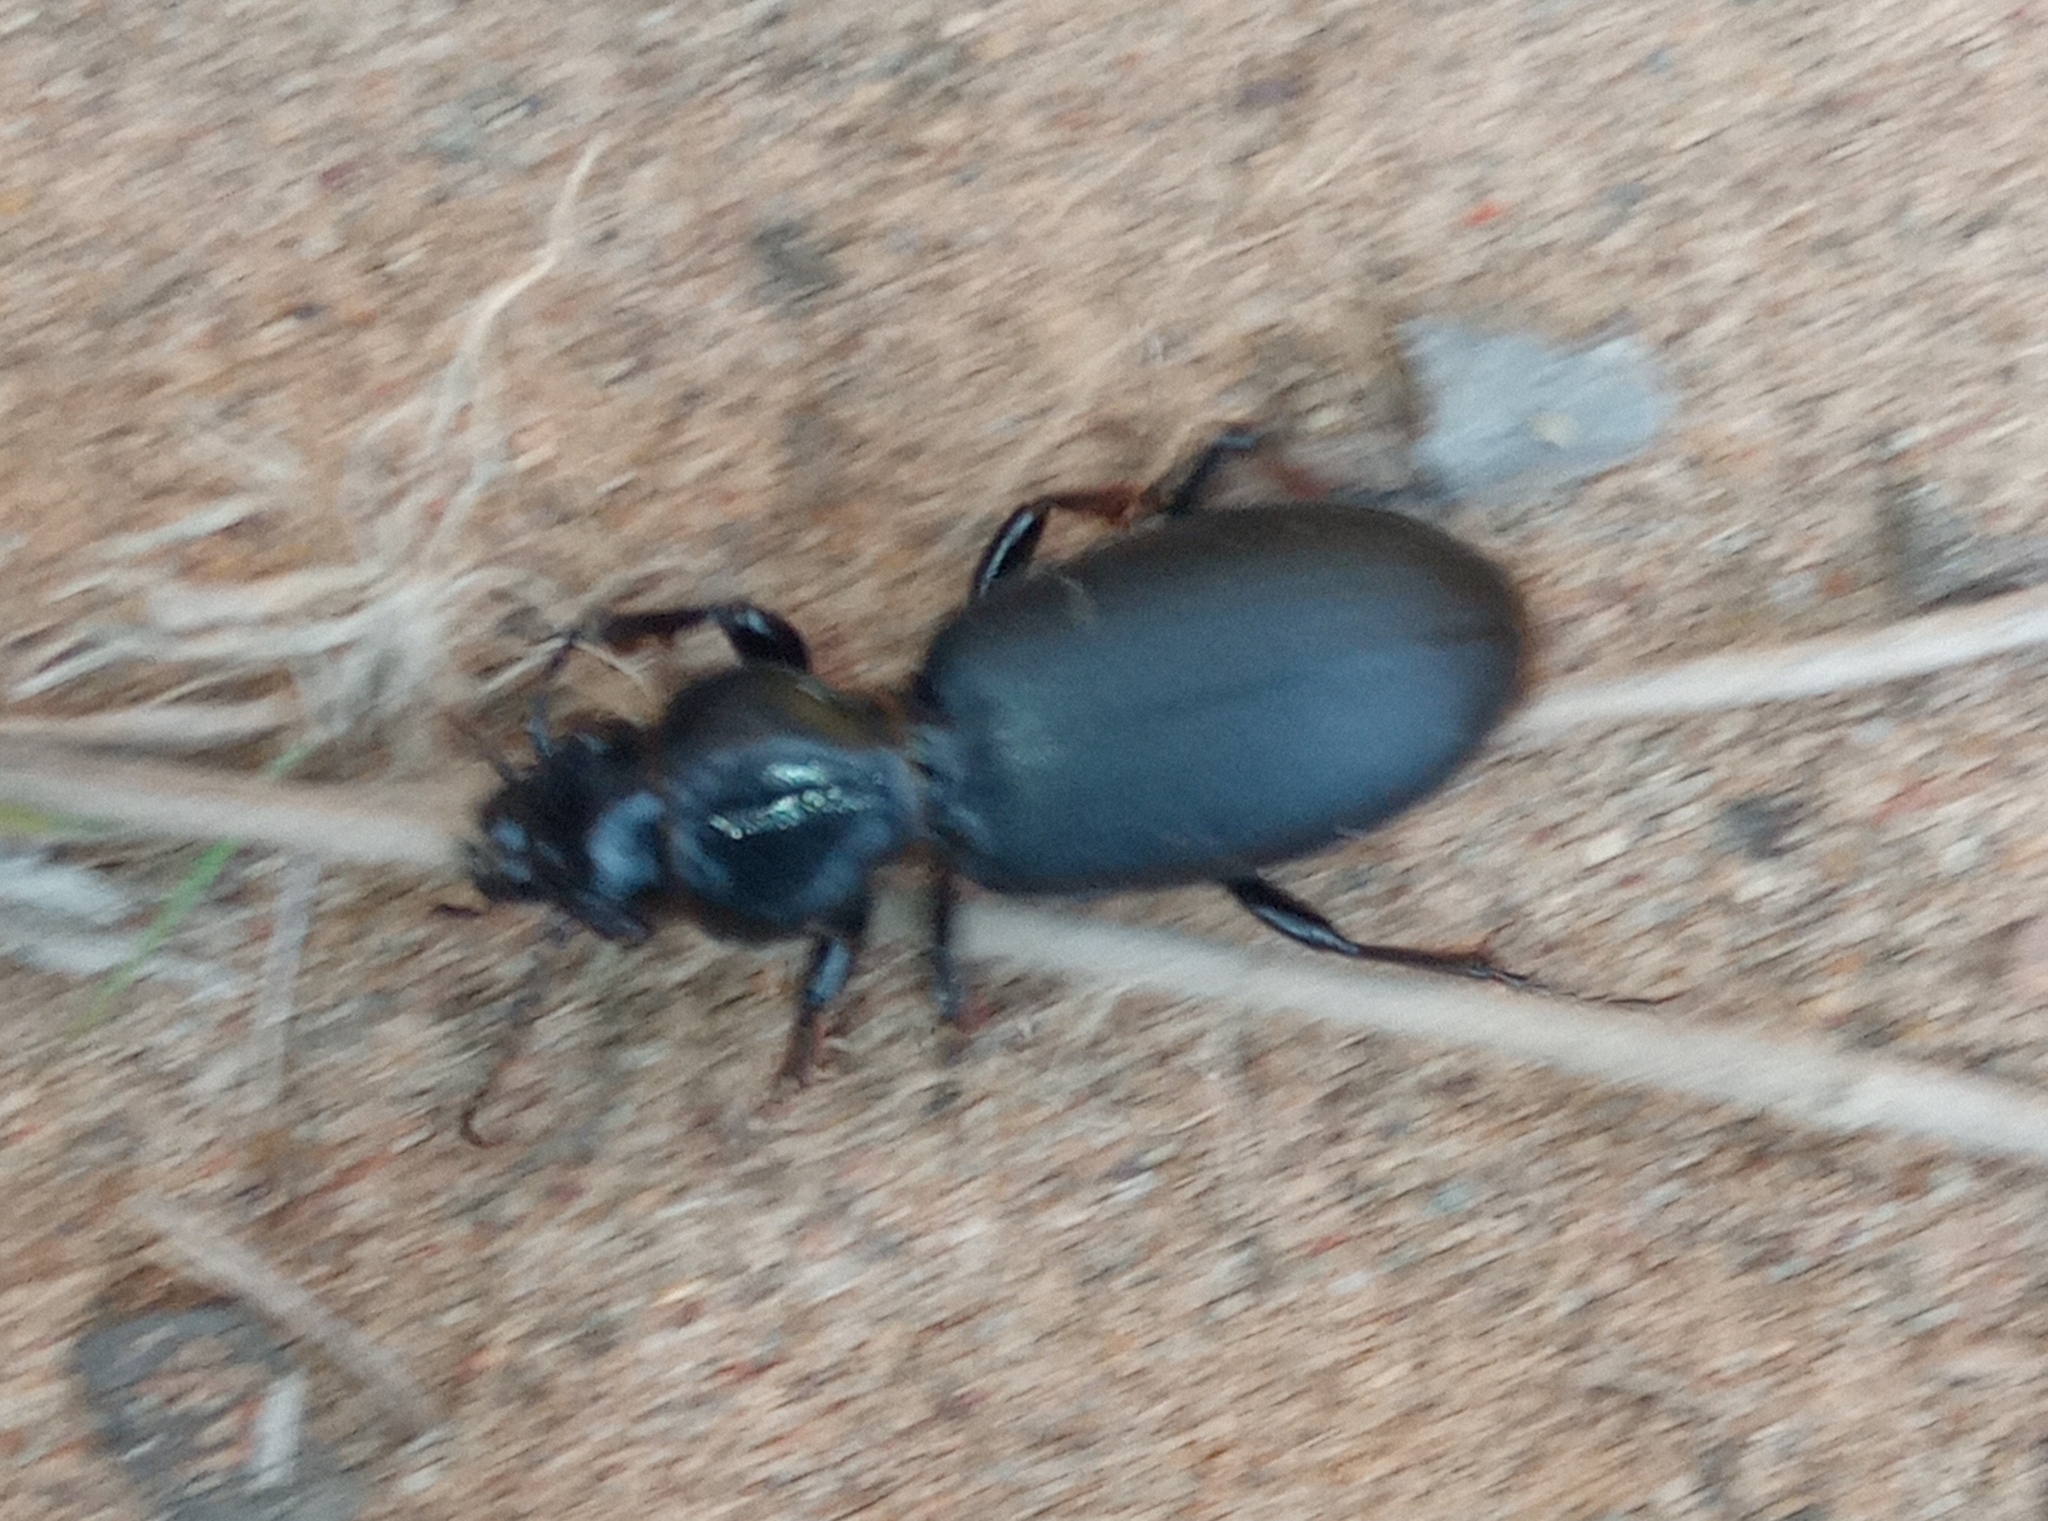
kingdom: Animalia
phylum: Arthropoda
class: Insecta
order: Coleoptera
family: Carabidae
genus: Broscus
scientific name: Broscus cephalotes
